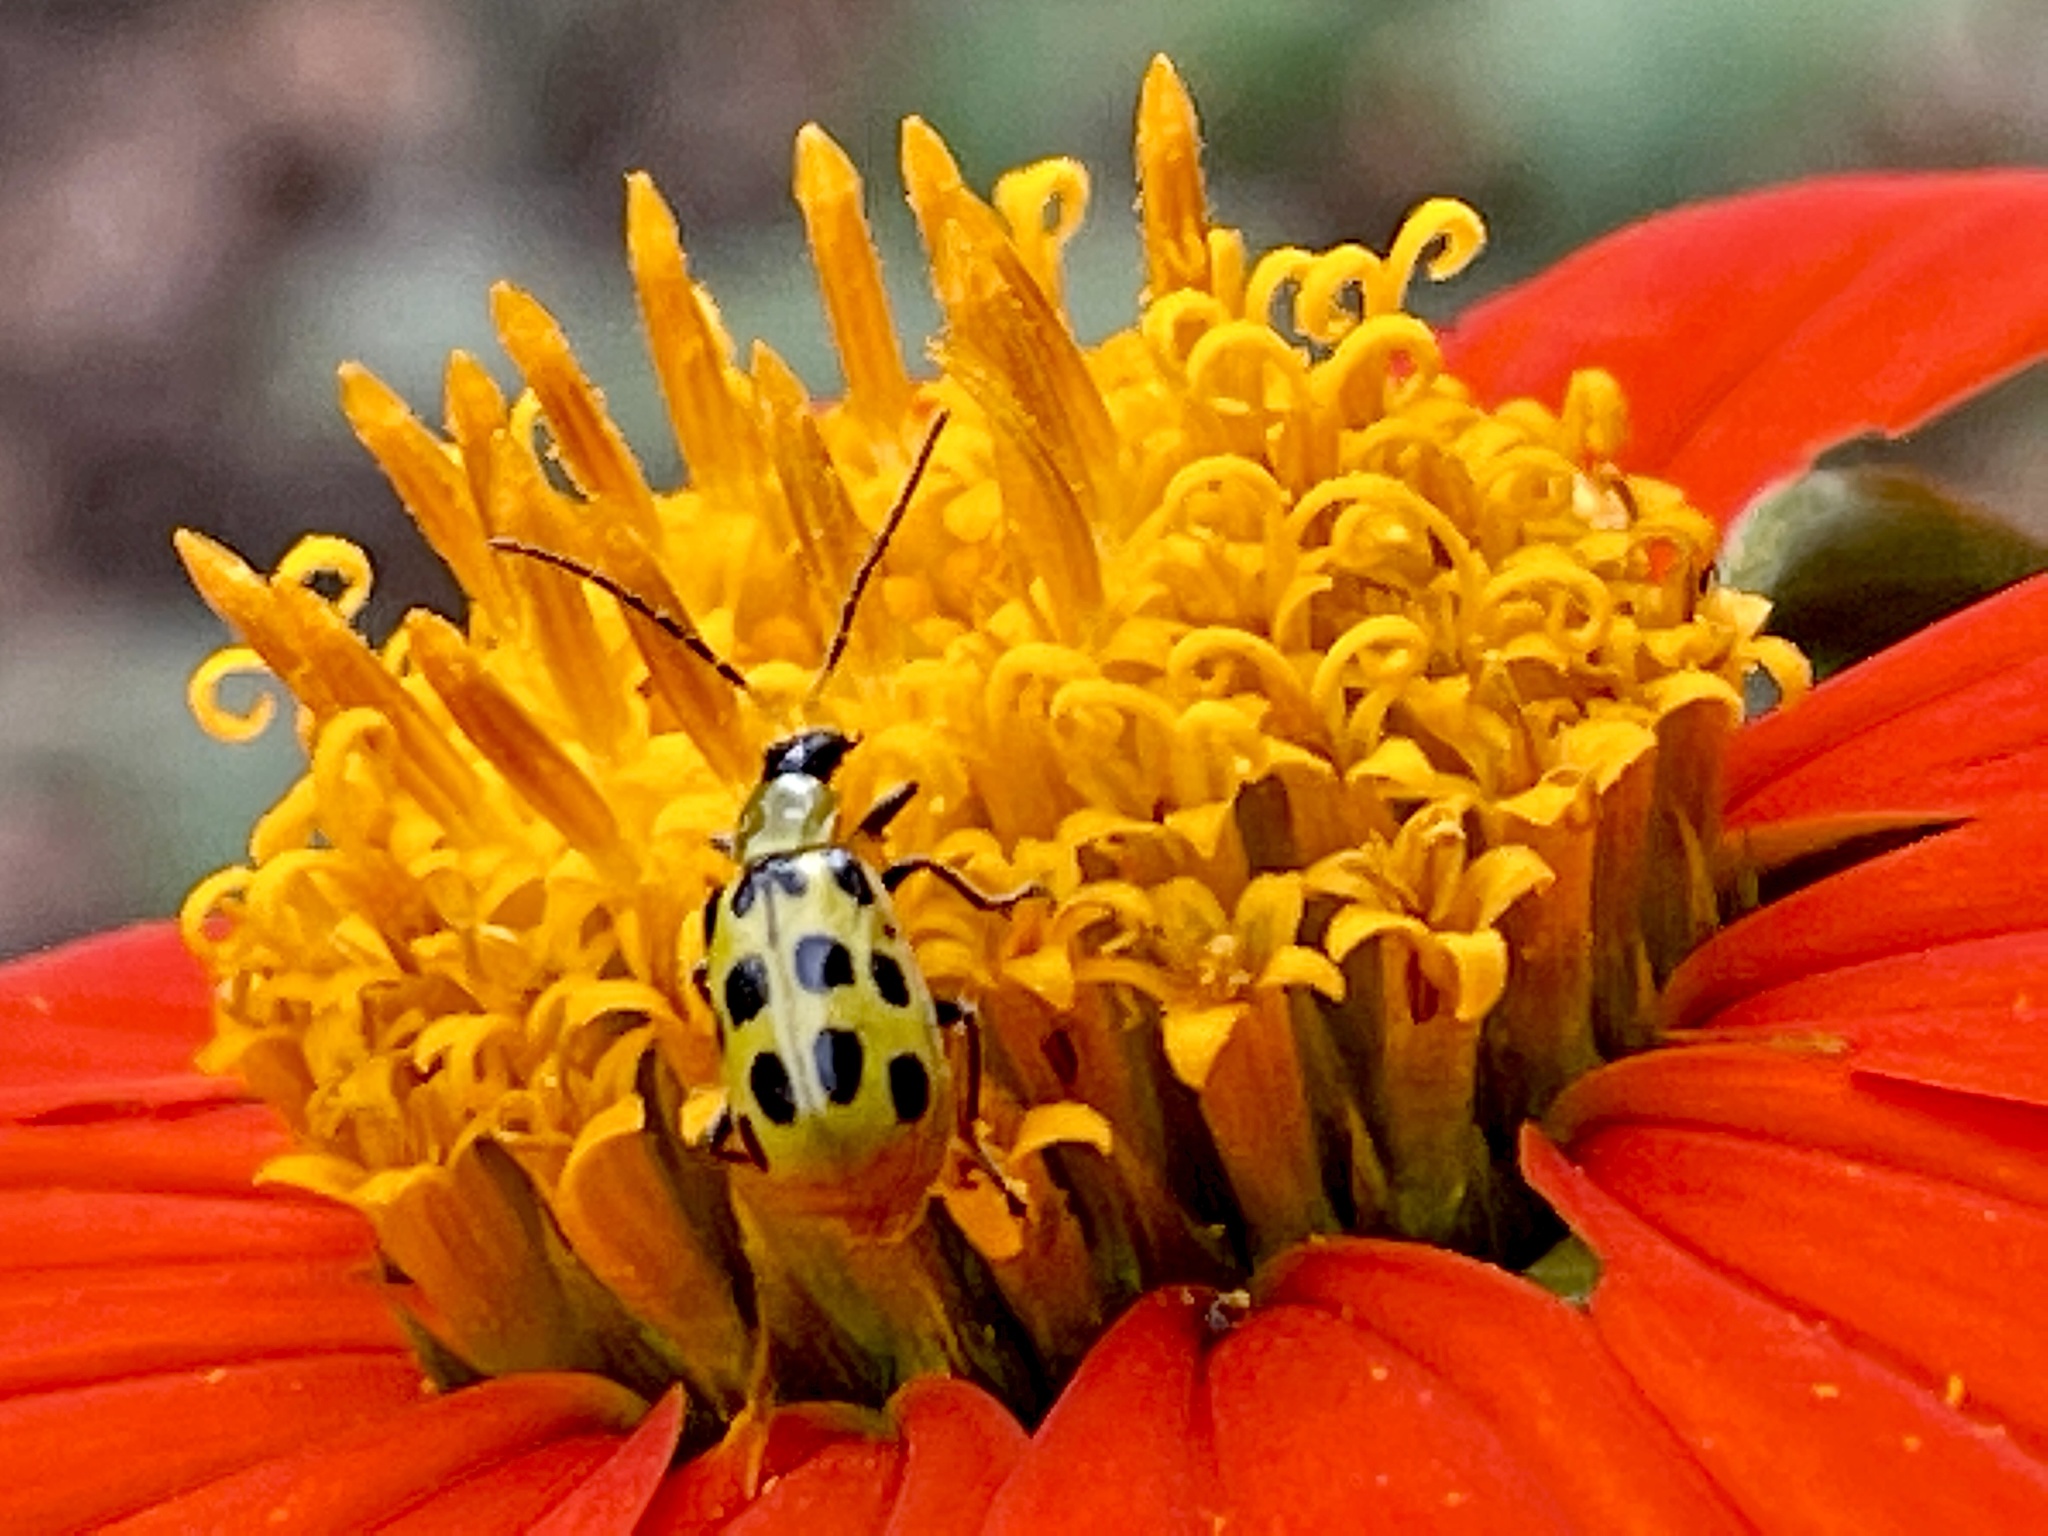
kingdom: Animalia
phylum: Arthropoda
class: Insecta
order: Coleoptera
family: Chrysomelidae
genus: Diabrotica
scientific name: Diabrotica undecimpunctata
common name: Spotted cucumber beetle
